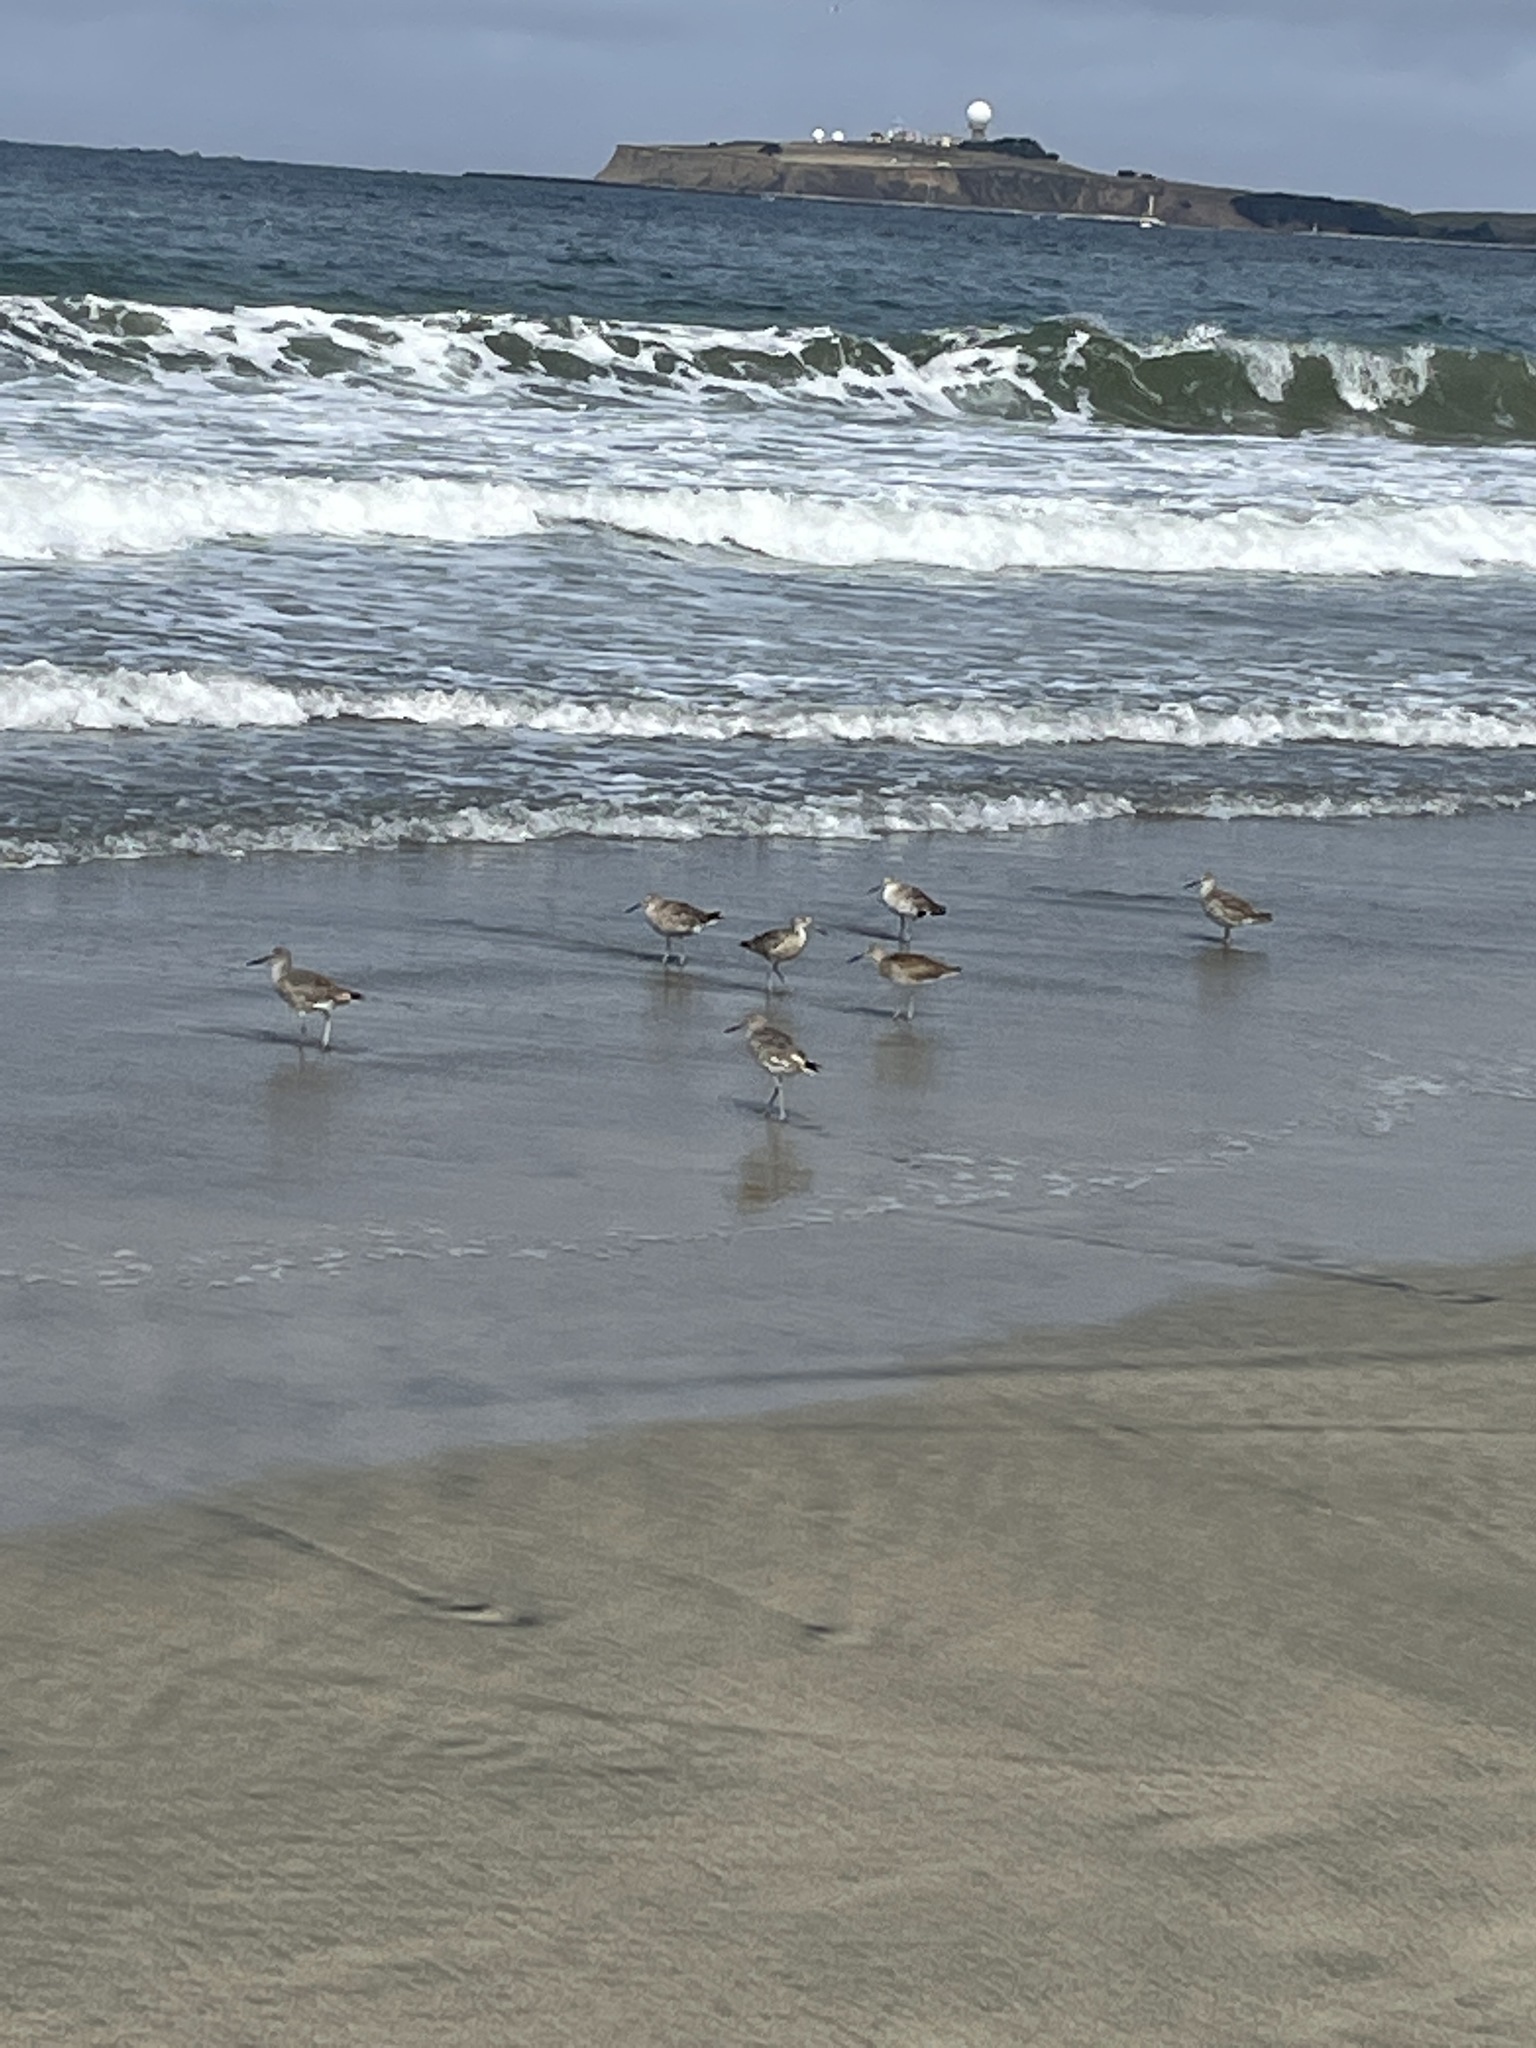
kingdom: Animalia
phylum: Chordata
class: Aves
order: Charadriiformes
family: Scolopacidae
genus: Tringa
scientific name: Tringa semipalmata
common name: Willet
